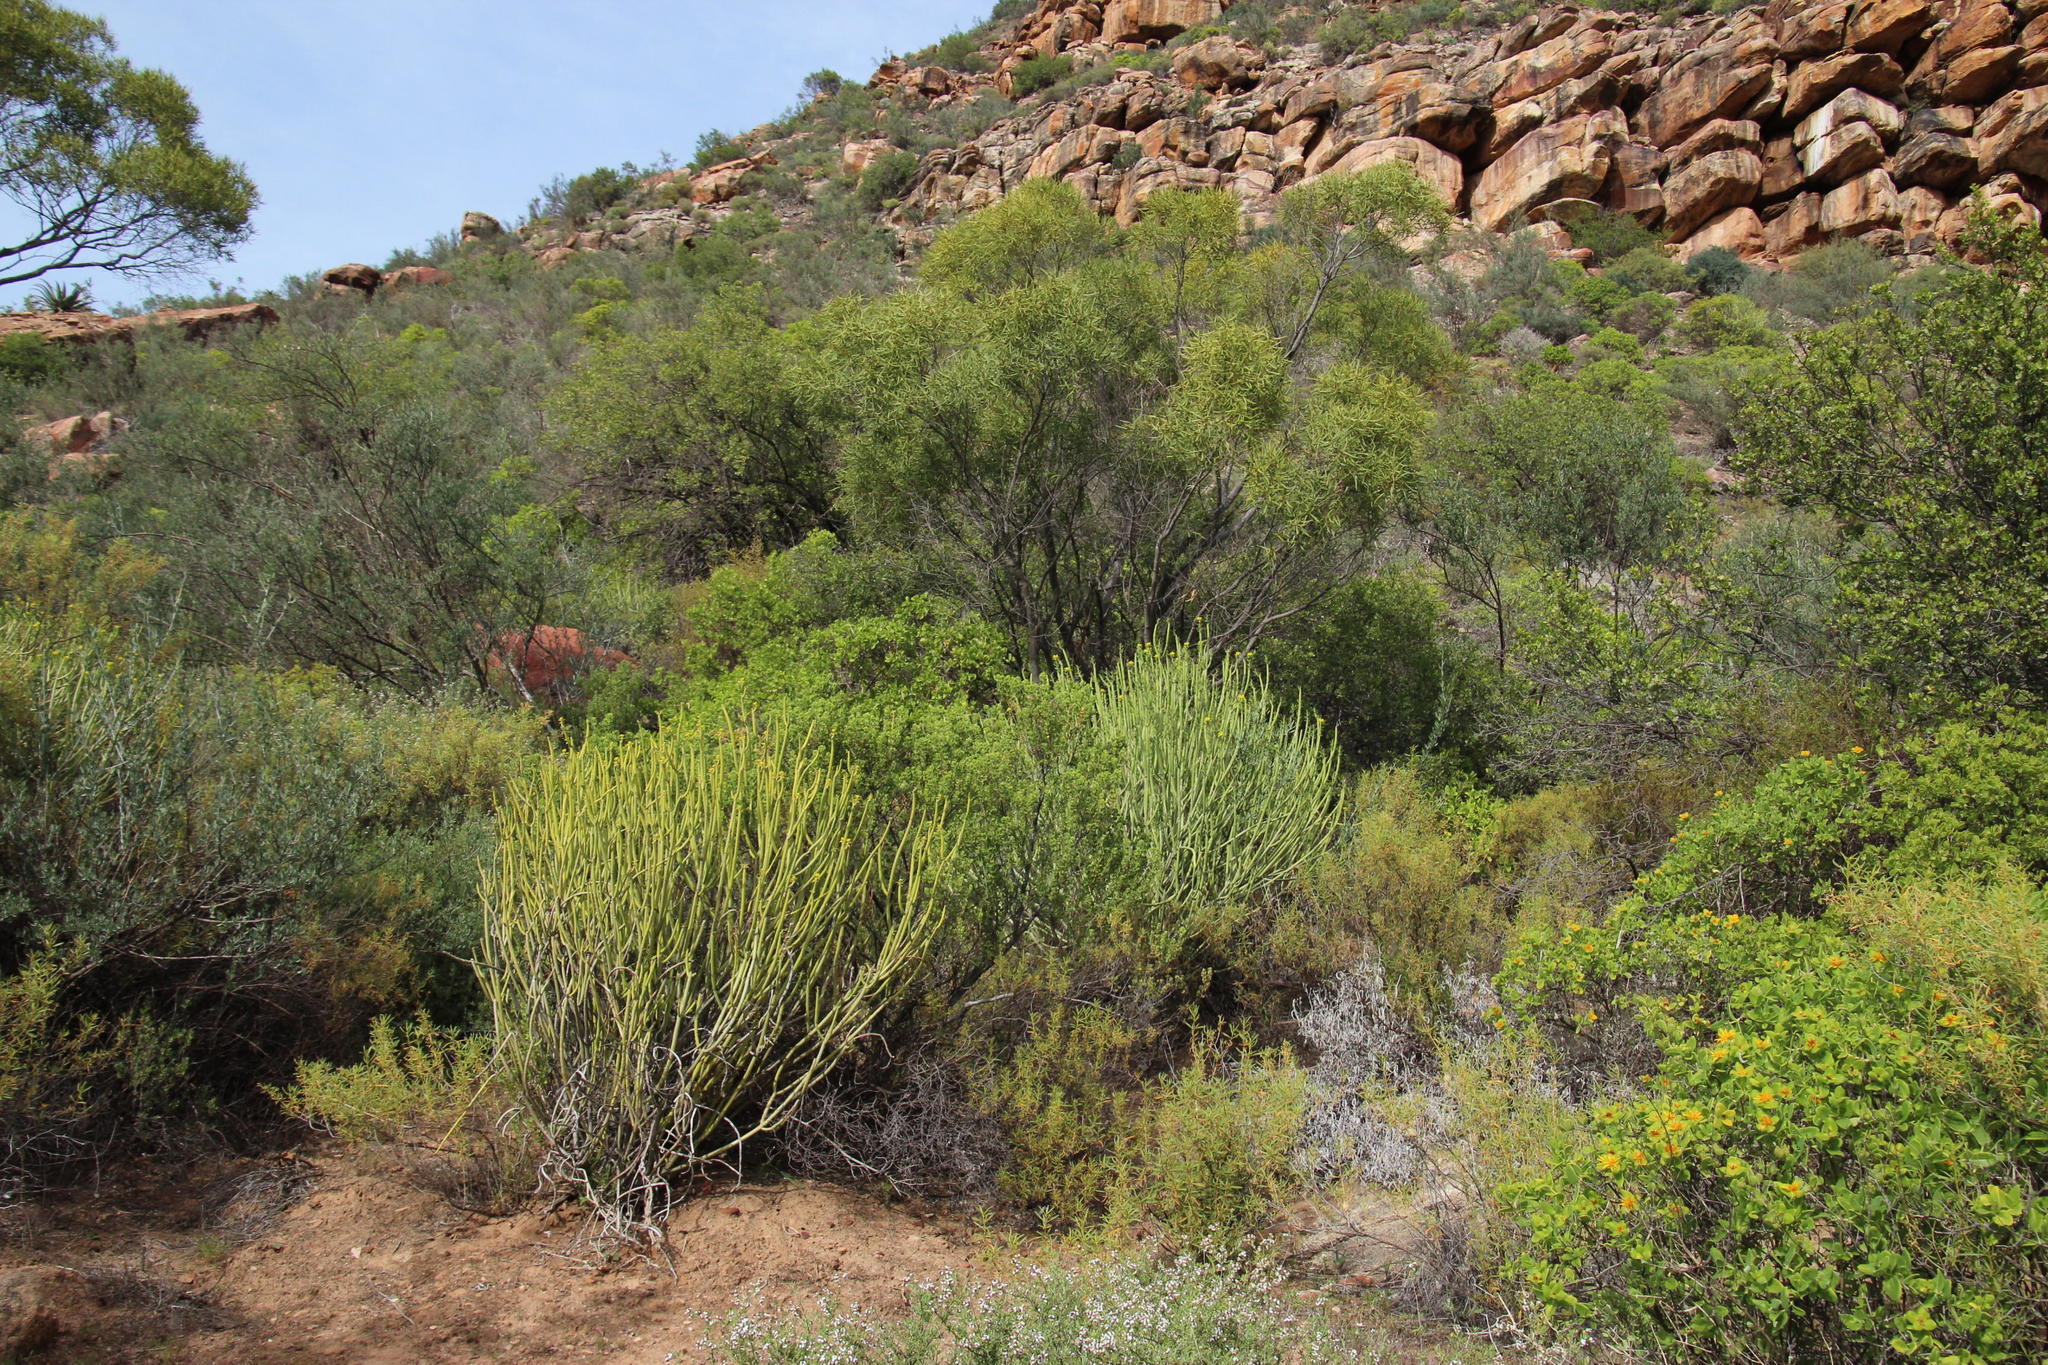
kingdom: Plantae
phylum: Tracheophyta
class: Magnoliopsida
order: Malpighiales
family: Euphorbiaceae
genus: Euphorbia
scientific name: Euphorbia mauritanica
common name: Jackal's-food
